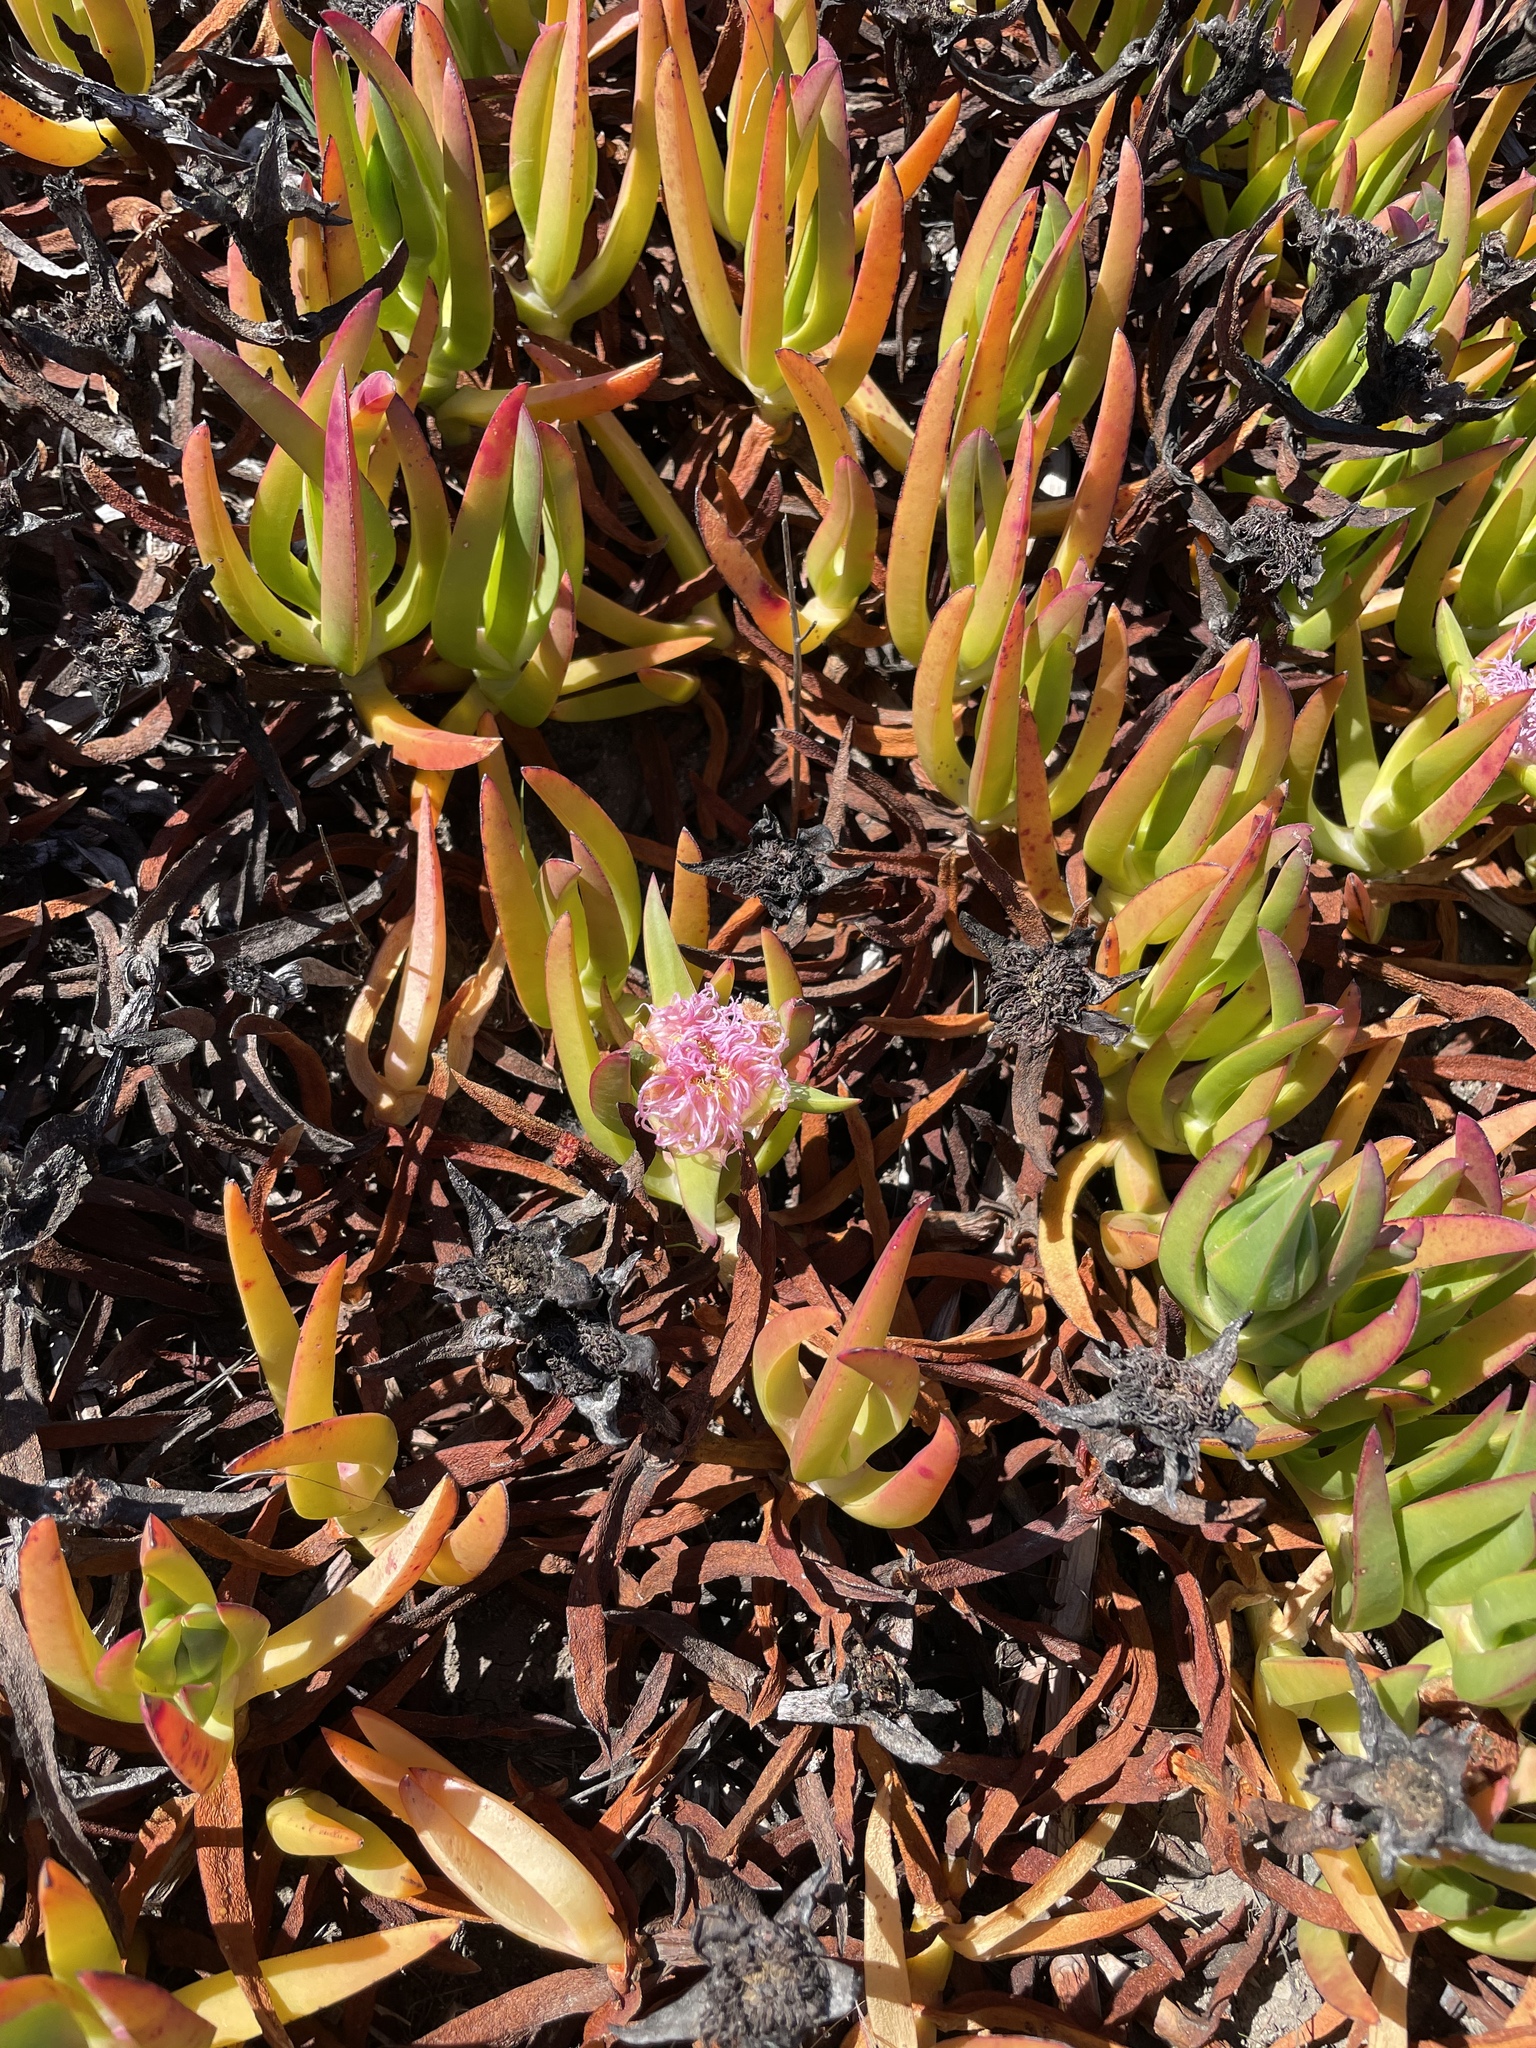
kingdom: Plantae
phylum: Tracheophyta
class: Magnoliopsida
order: Caryophyllales
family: Aizoaceae
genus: Carpobrotus
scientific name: Carpobrotus chilensis
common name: Sea fig
